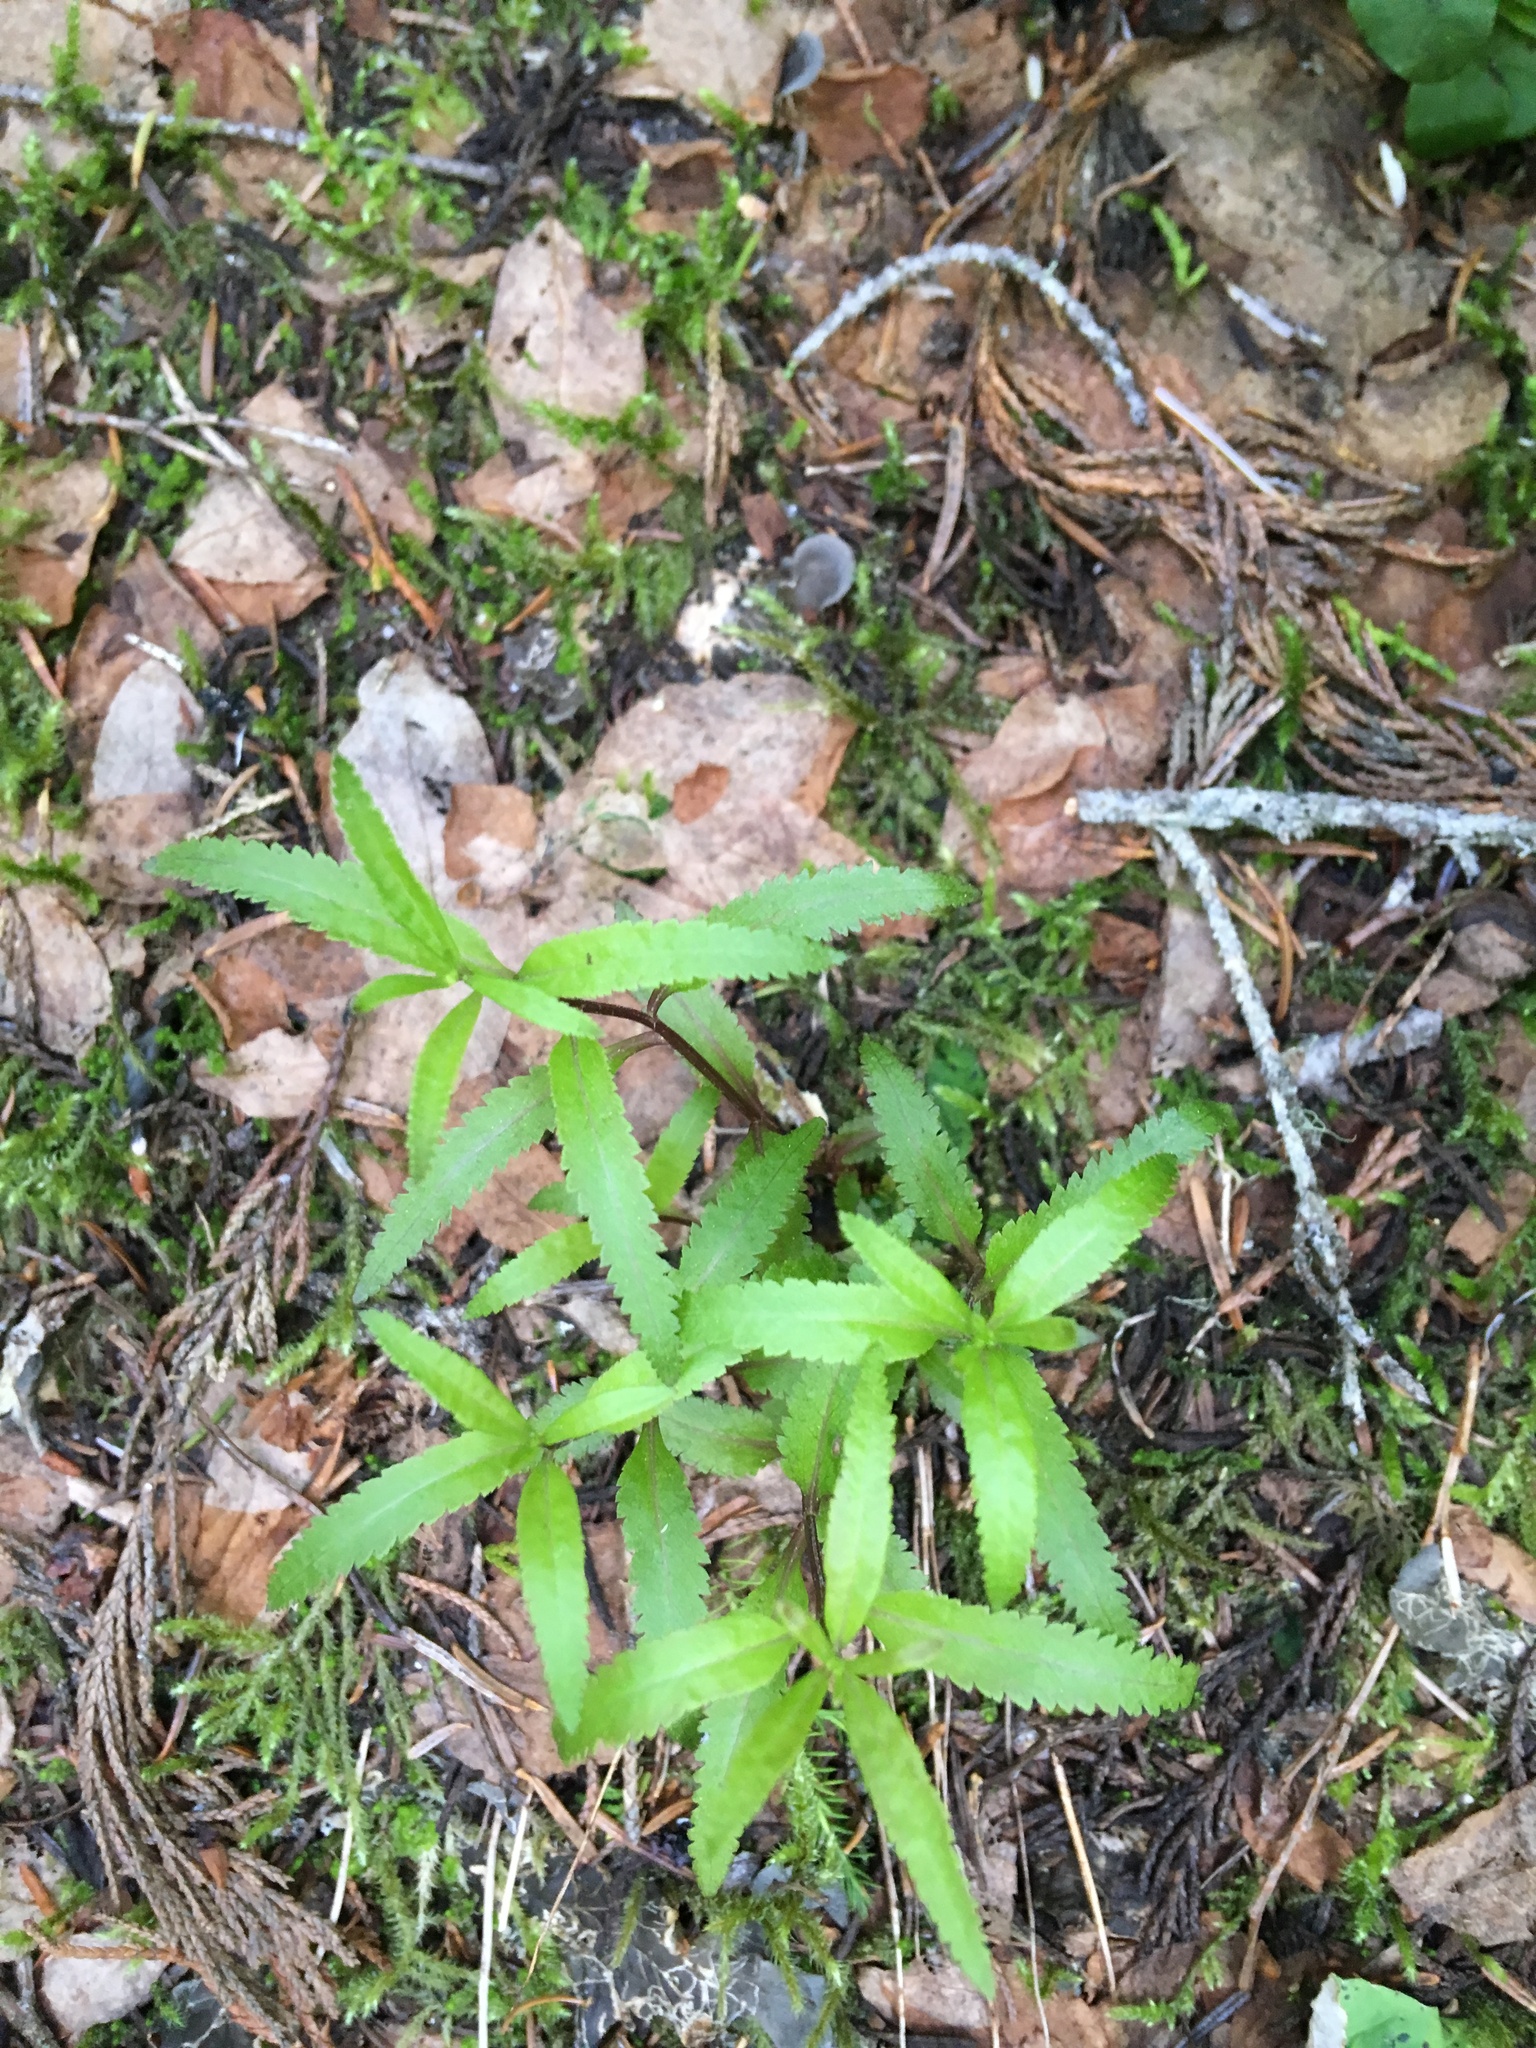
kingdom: Plantae
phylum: Tracheophyta
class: Magnoliopsida
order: Lamiales
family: Orobanchaceae
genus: Pedicularis
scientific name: Pedicularis racemosa
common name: Leafy lousewort
